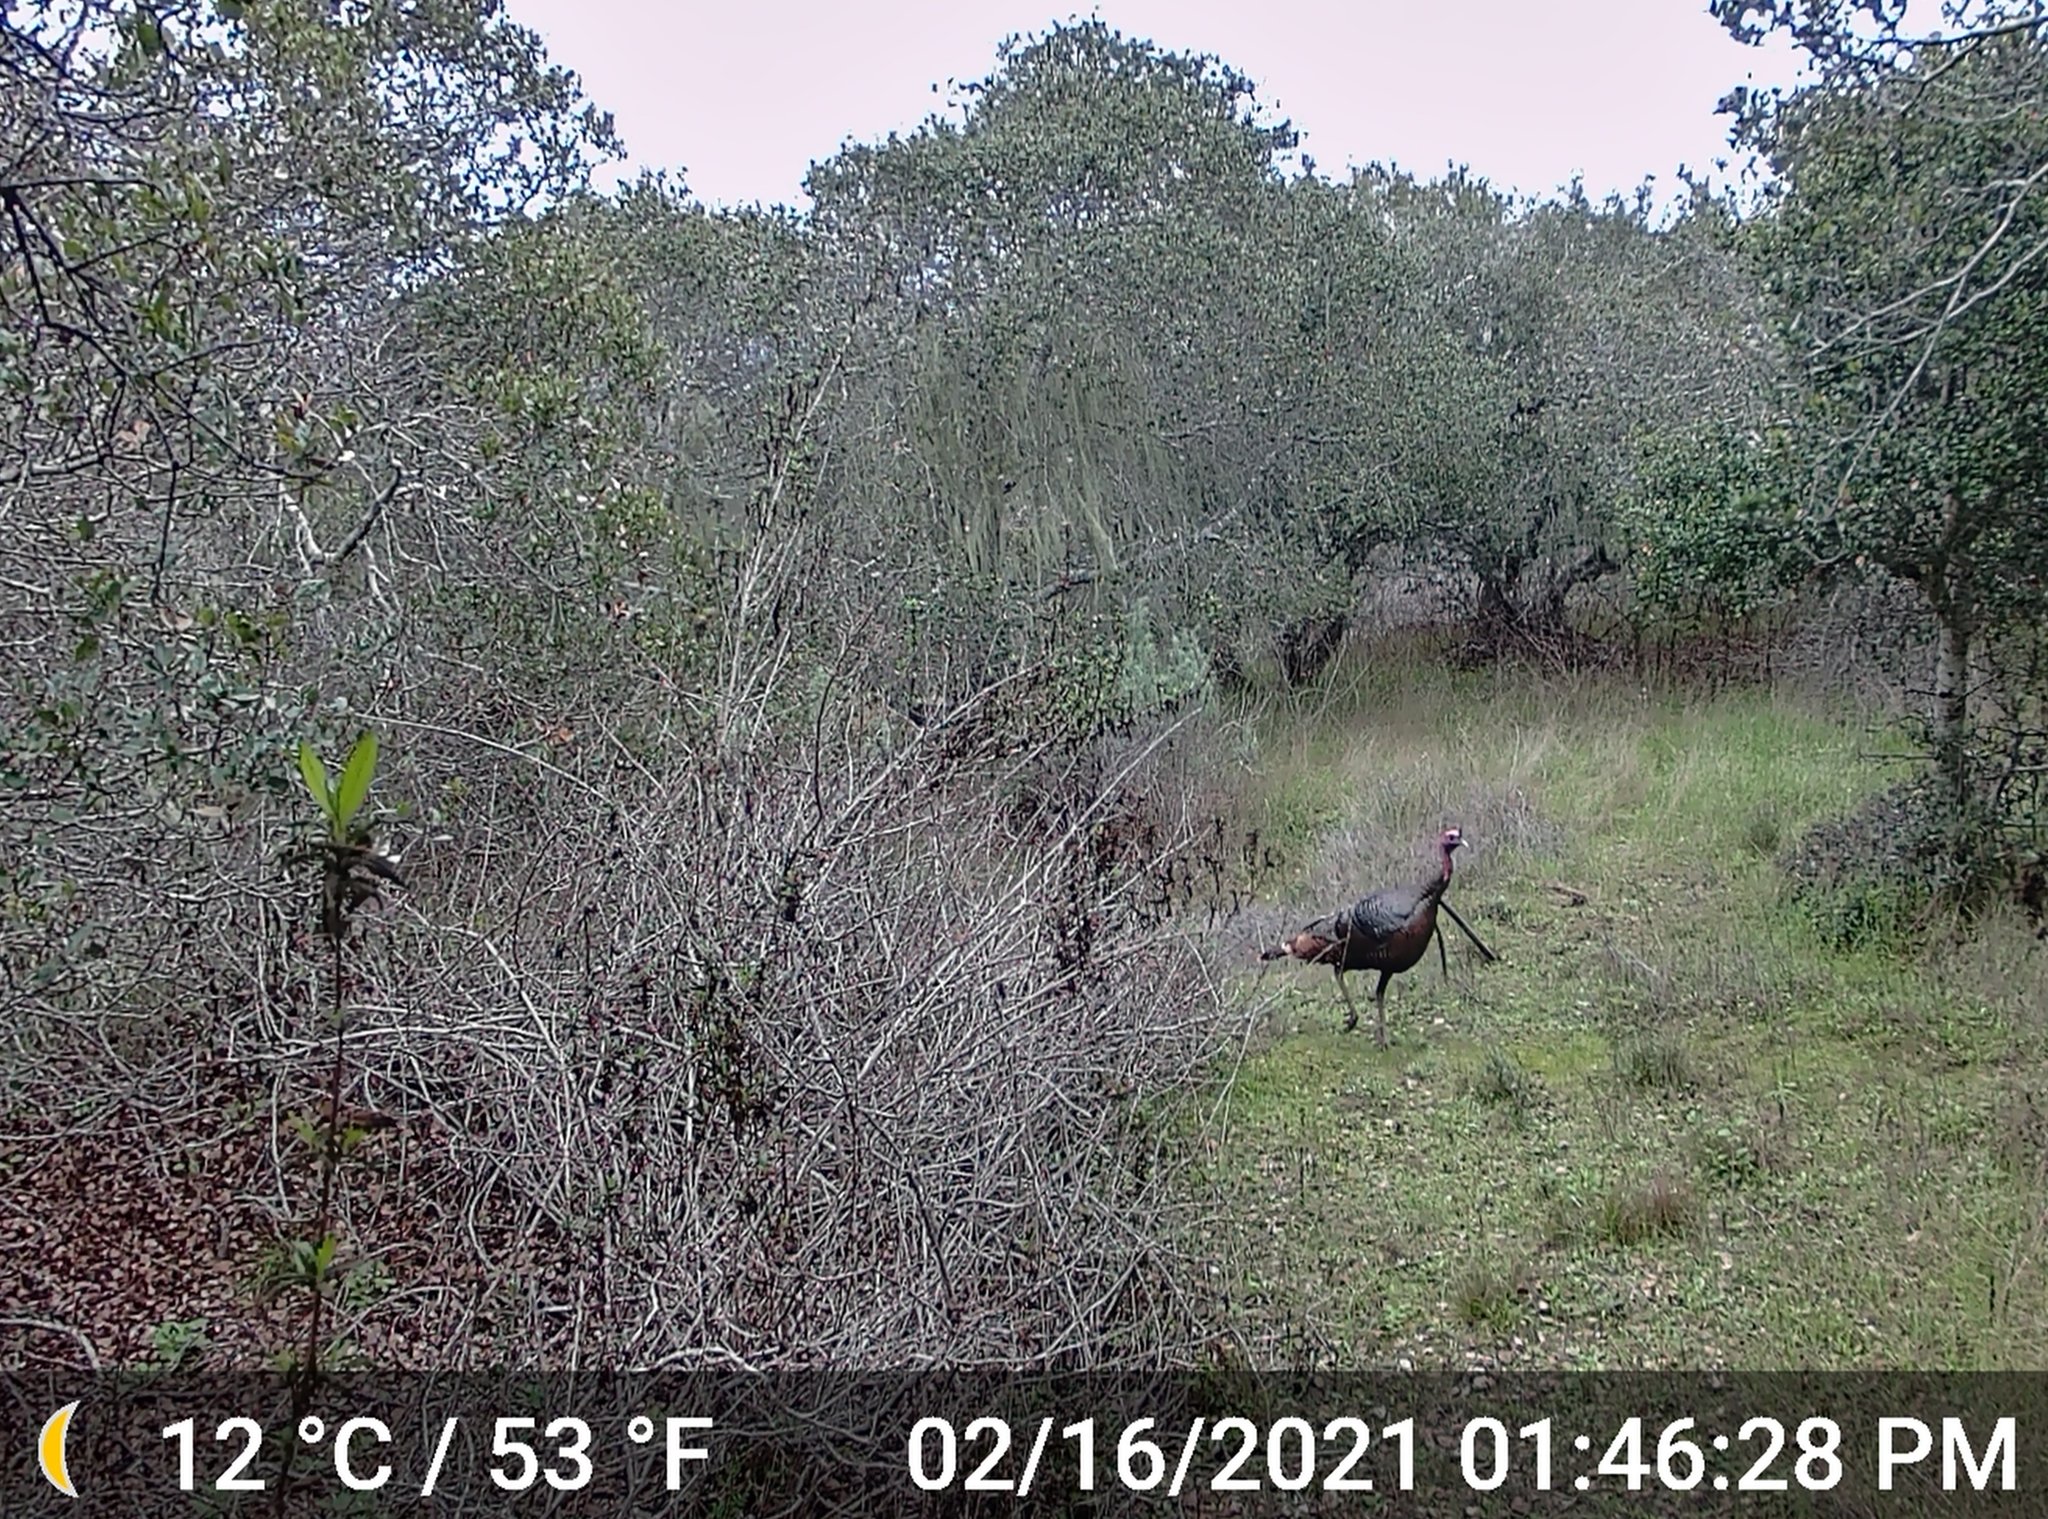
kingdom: Animalia
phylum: Chordata
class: Aves
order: Galliformes
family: Phasianidae
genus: Meleagris
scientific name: Meleagris gallopavo
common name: Wild turkey
